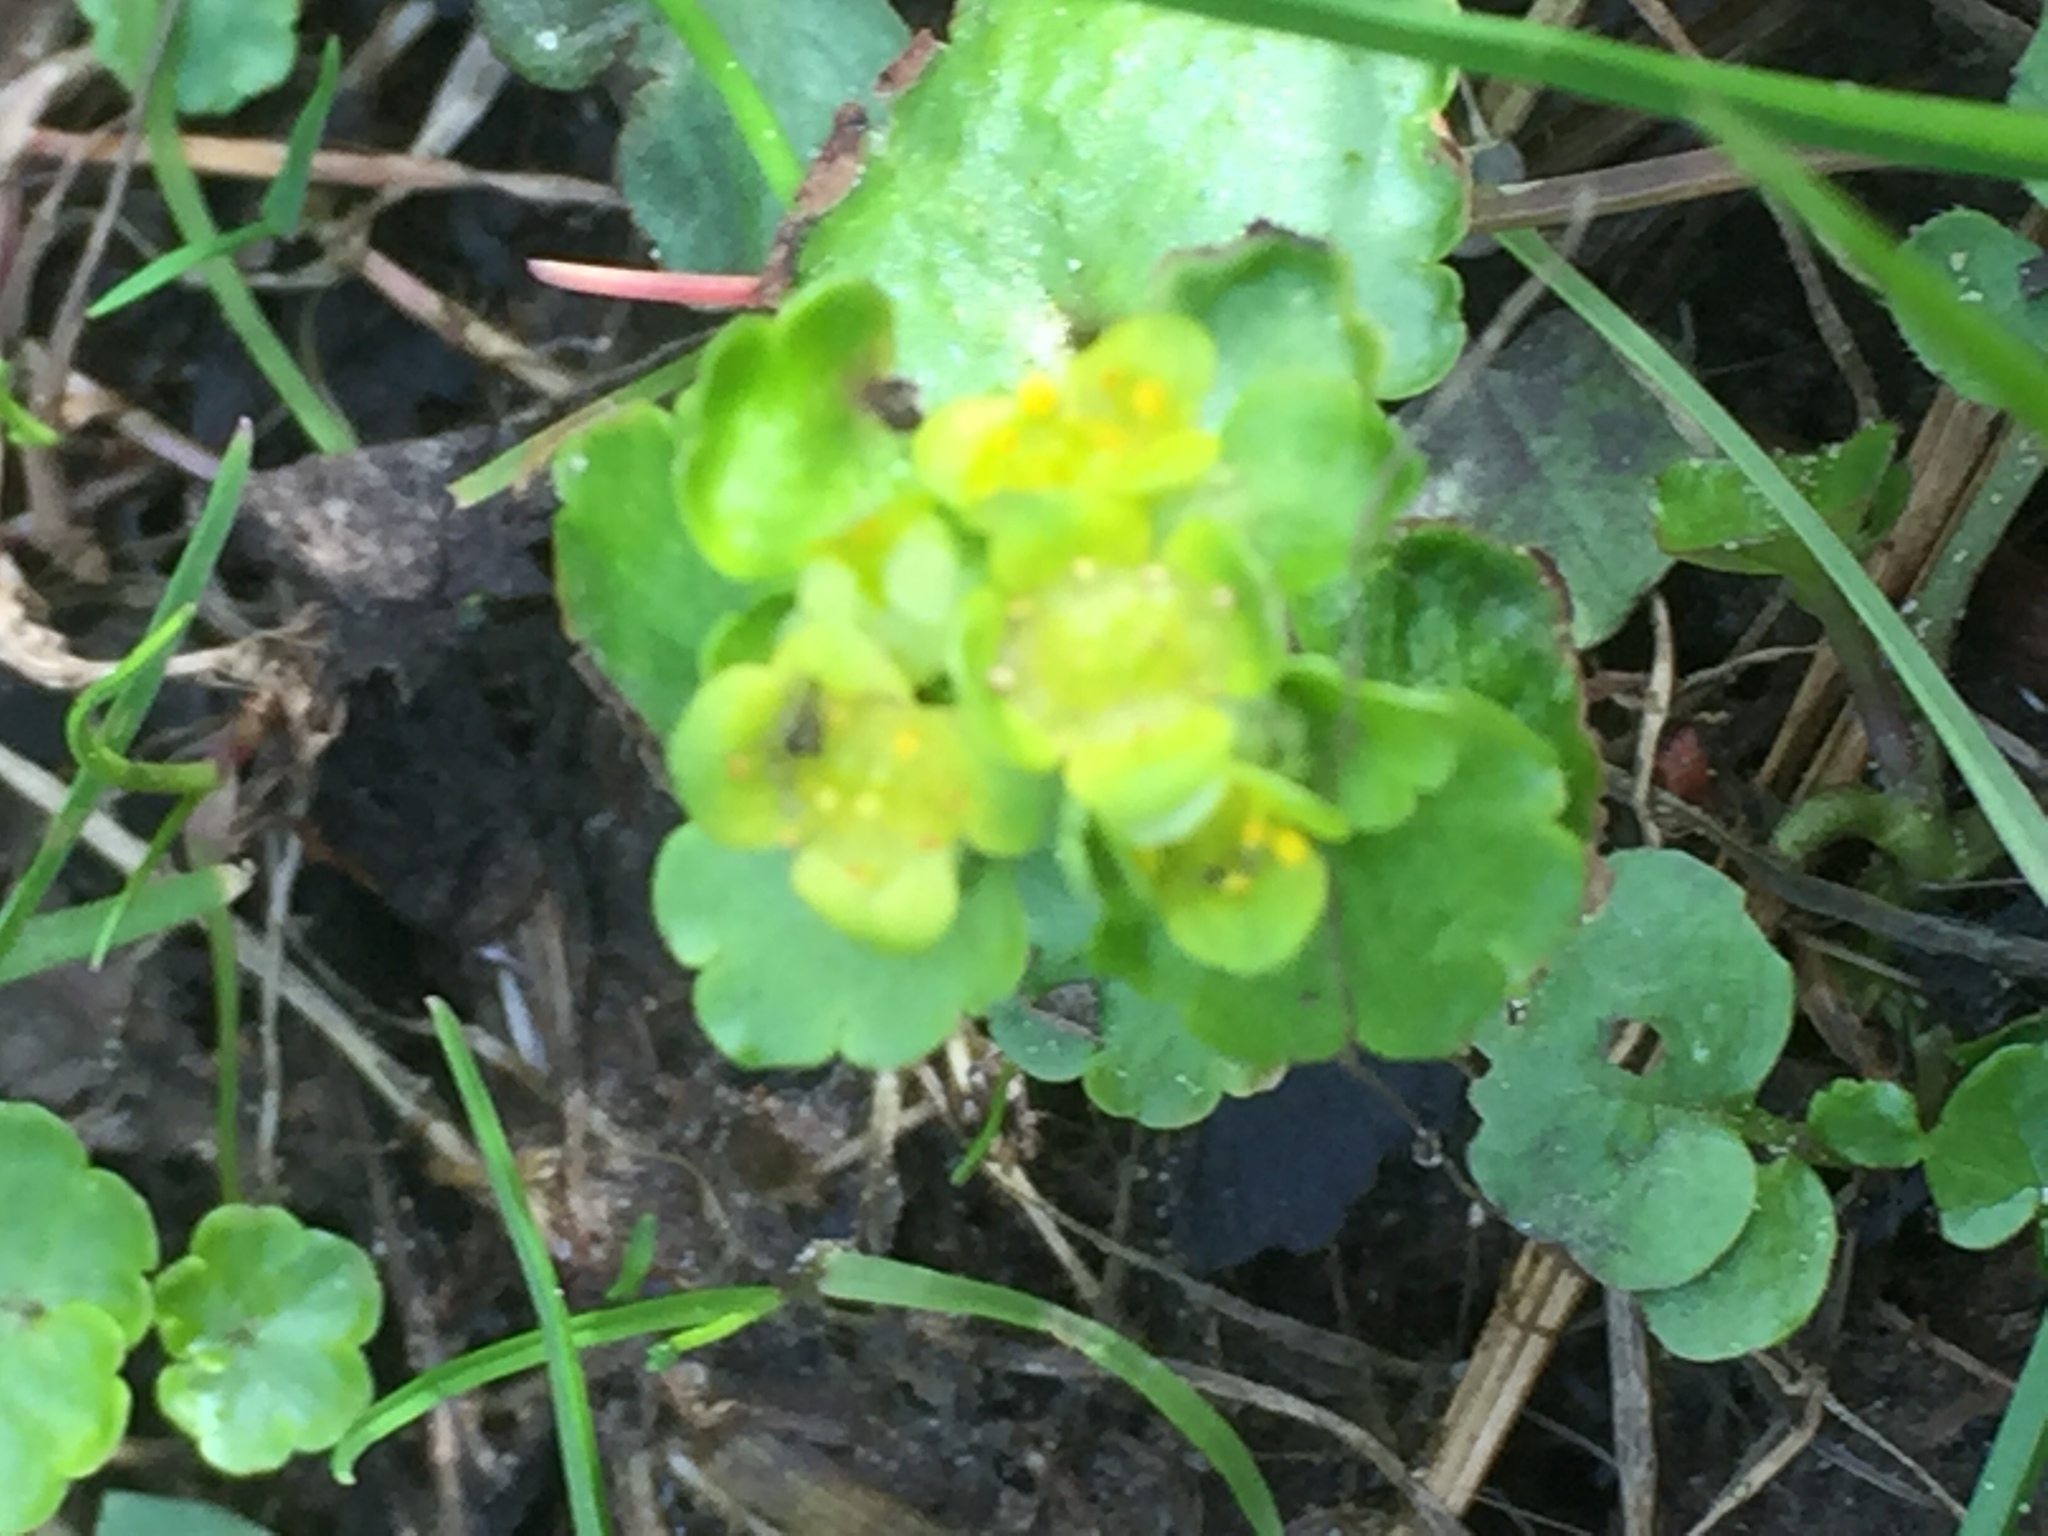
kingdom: Plantae
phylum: Tracheophyta
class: Magnoliopsida
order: Saxifragales
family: Saxifragaceae
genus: Chrysosplenium
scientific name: Chrysosplenium alternifolium
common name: Alternate-leaved golden-saxifrage
